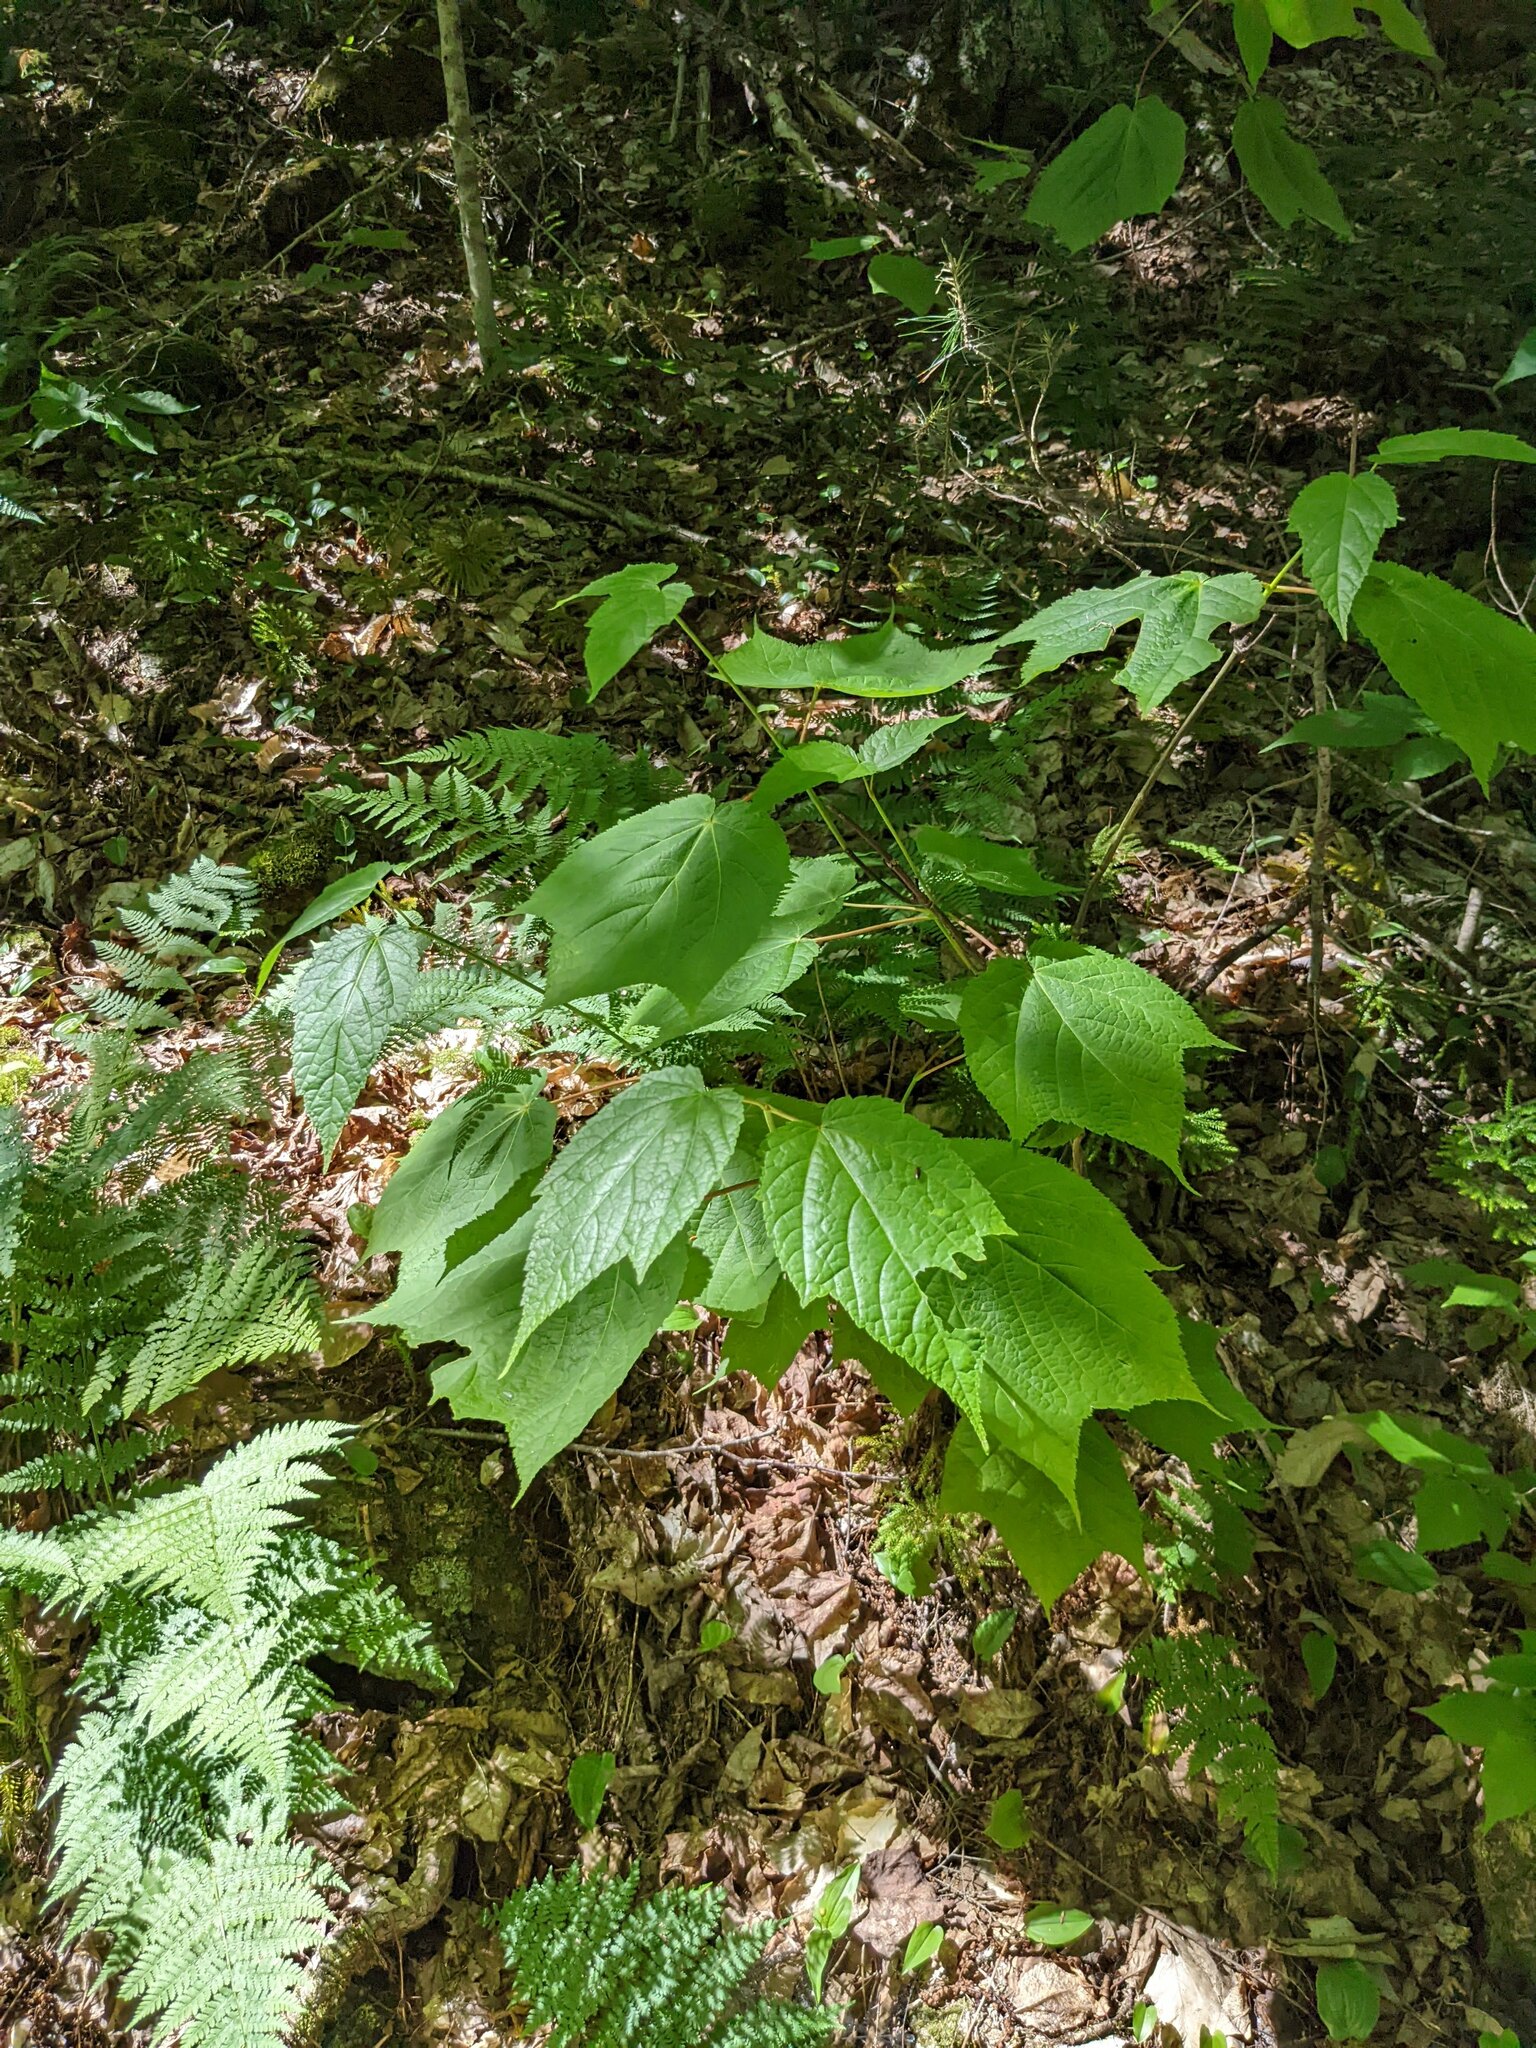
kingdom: Plantae
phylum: Tracheophyta
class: Magnoliopsida
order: Sapindales
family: Sapindaceae
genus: Acer
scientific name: Acer pensylvanicum
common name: Moosewood
